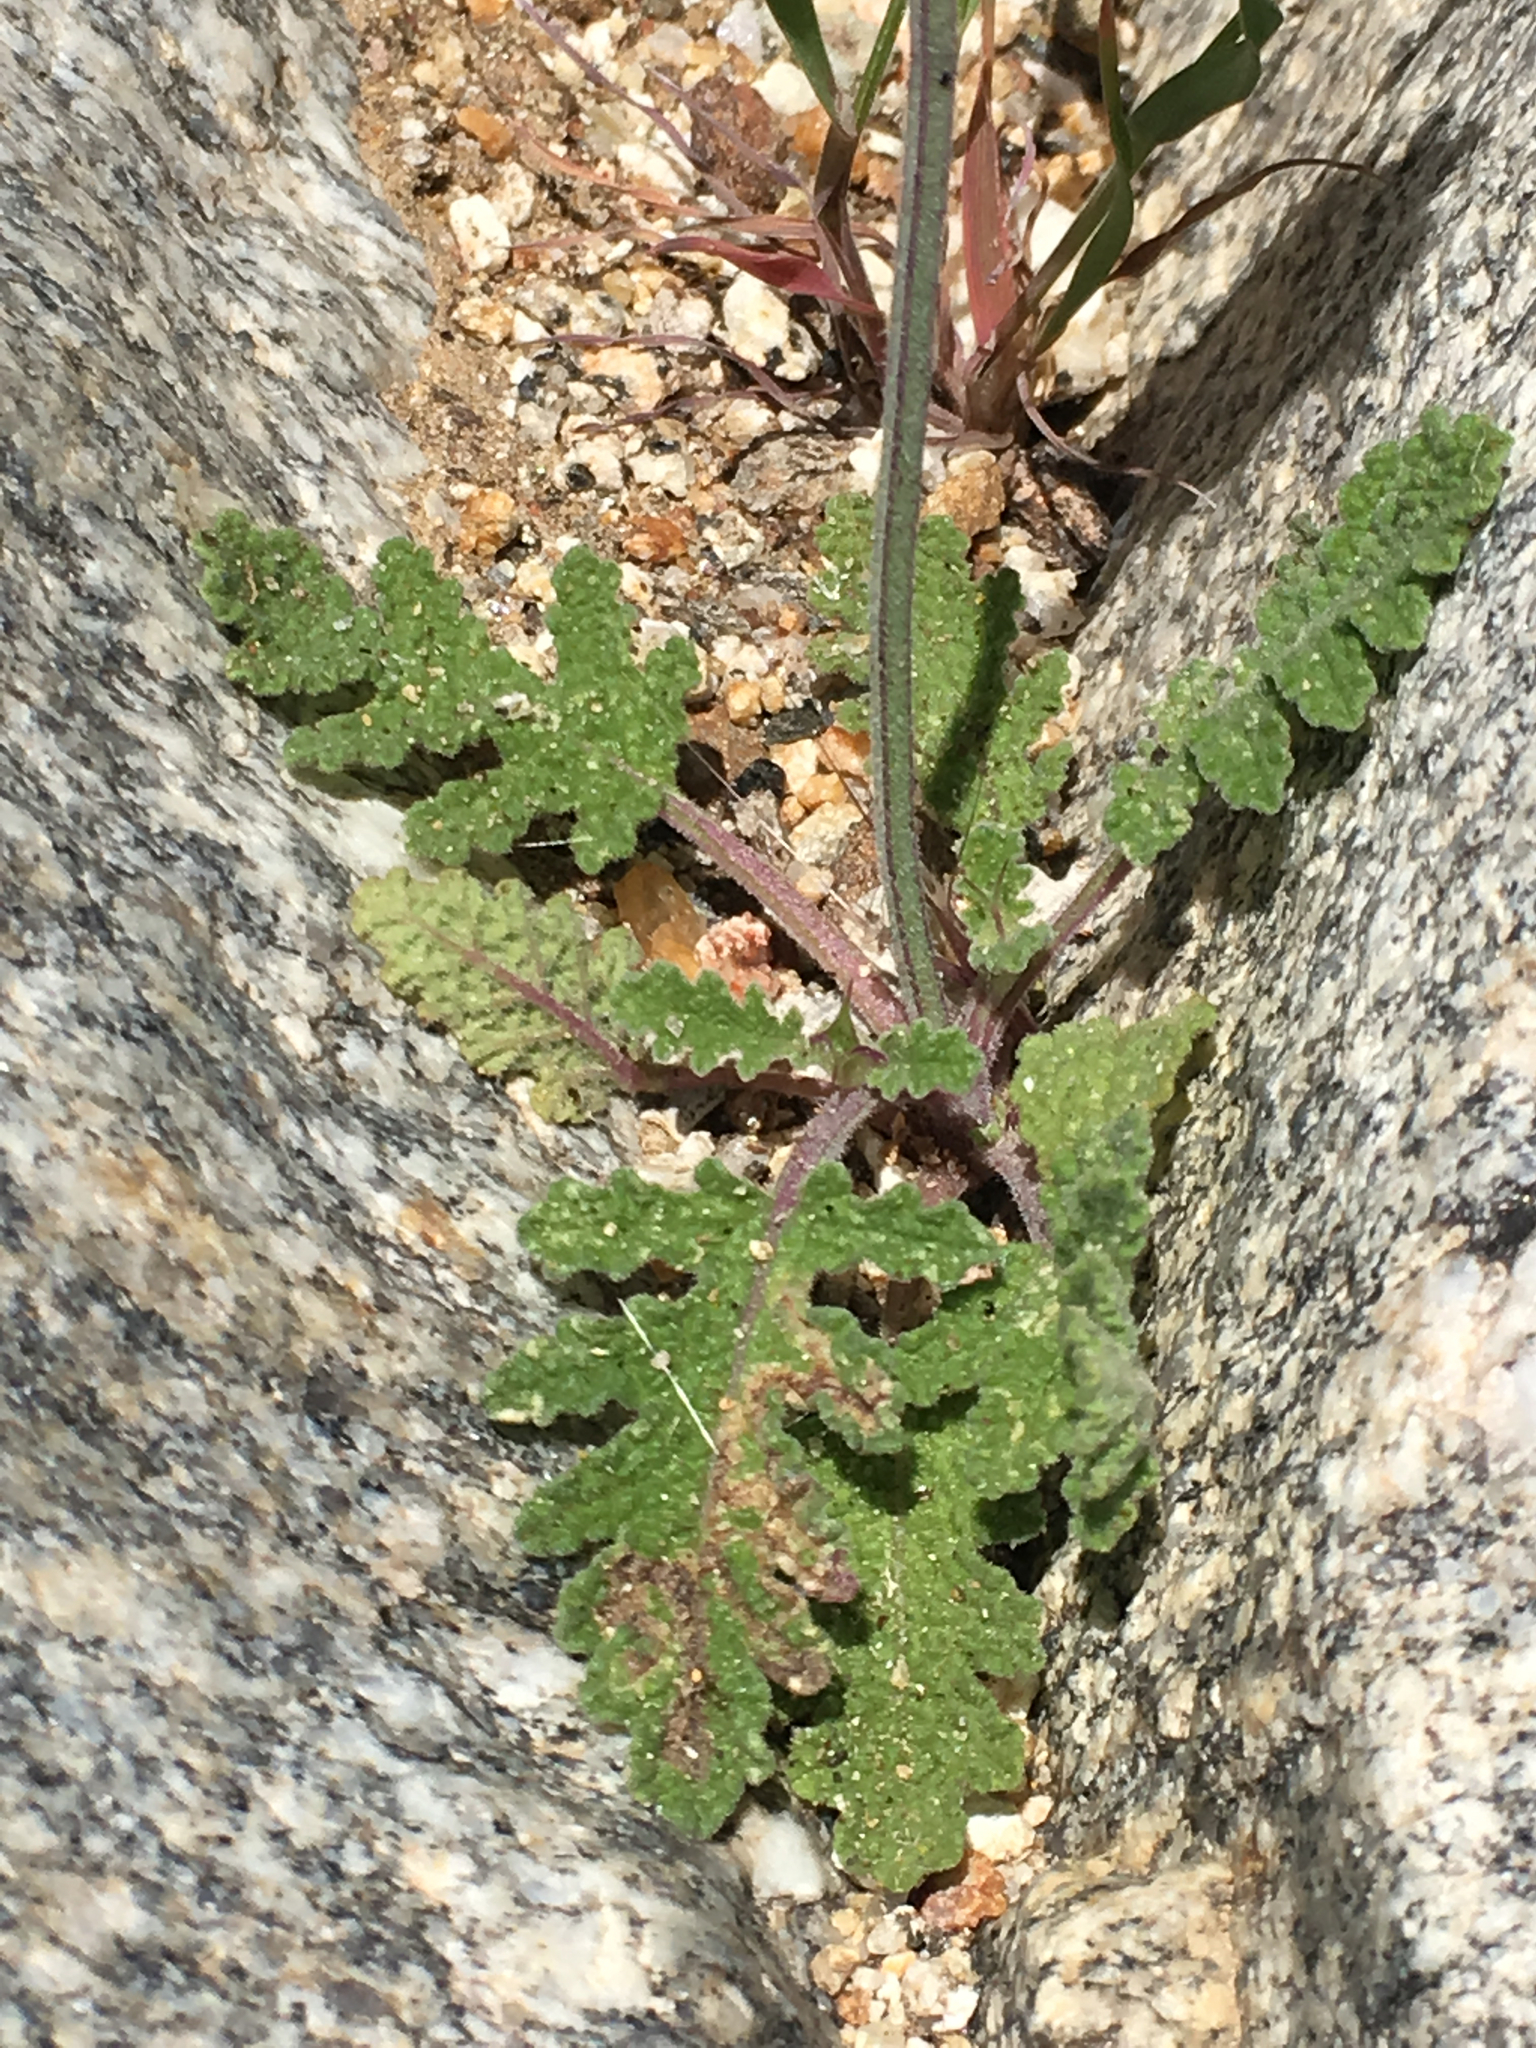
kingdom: Plantae
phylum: Tracheophyta
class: Magnoliopsida
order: Lamiales
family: Lamiaceae
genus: Salvia
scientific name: Salvia columbariae
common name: Chia
